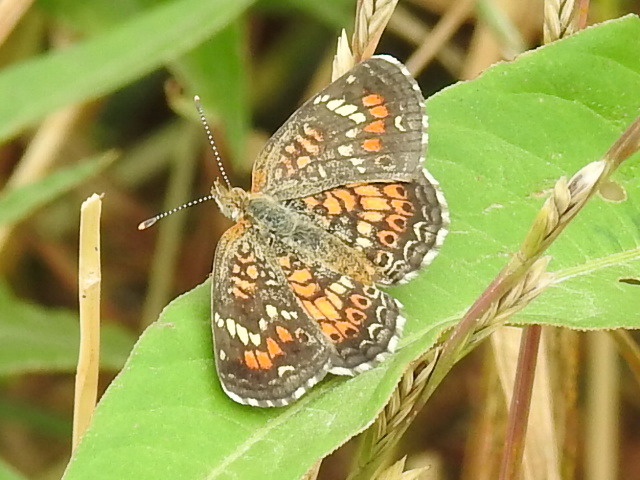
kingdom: Animalia
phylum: Arthropoda
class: Insecta
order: Lepidoptera
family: Nymphalidae
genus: Phyciodes
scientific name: Phyciodes phaon
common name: Phaon crescent
